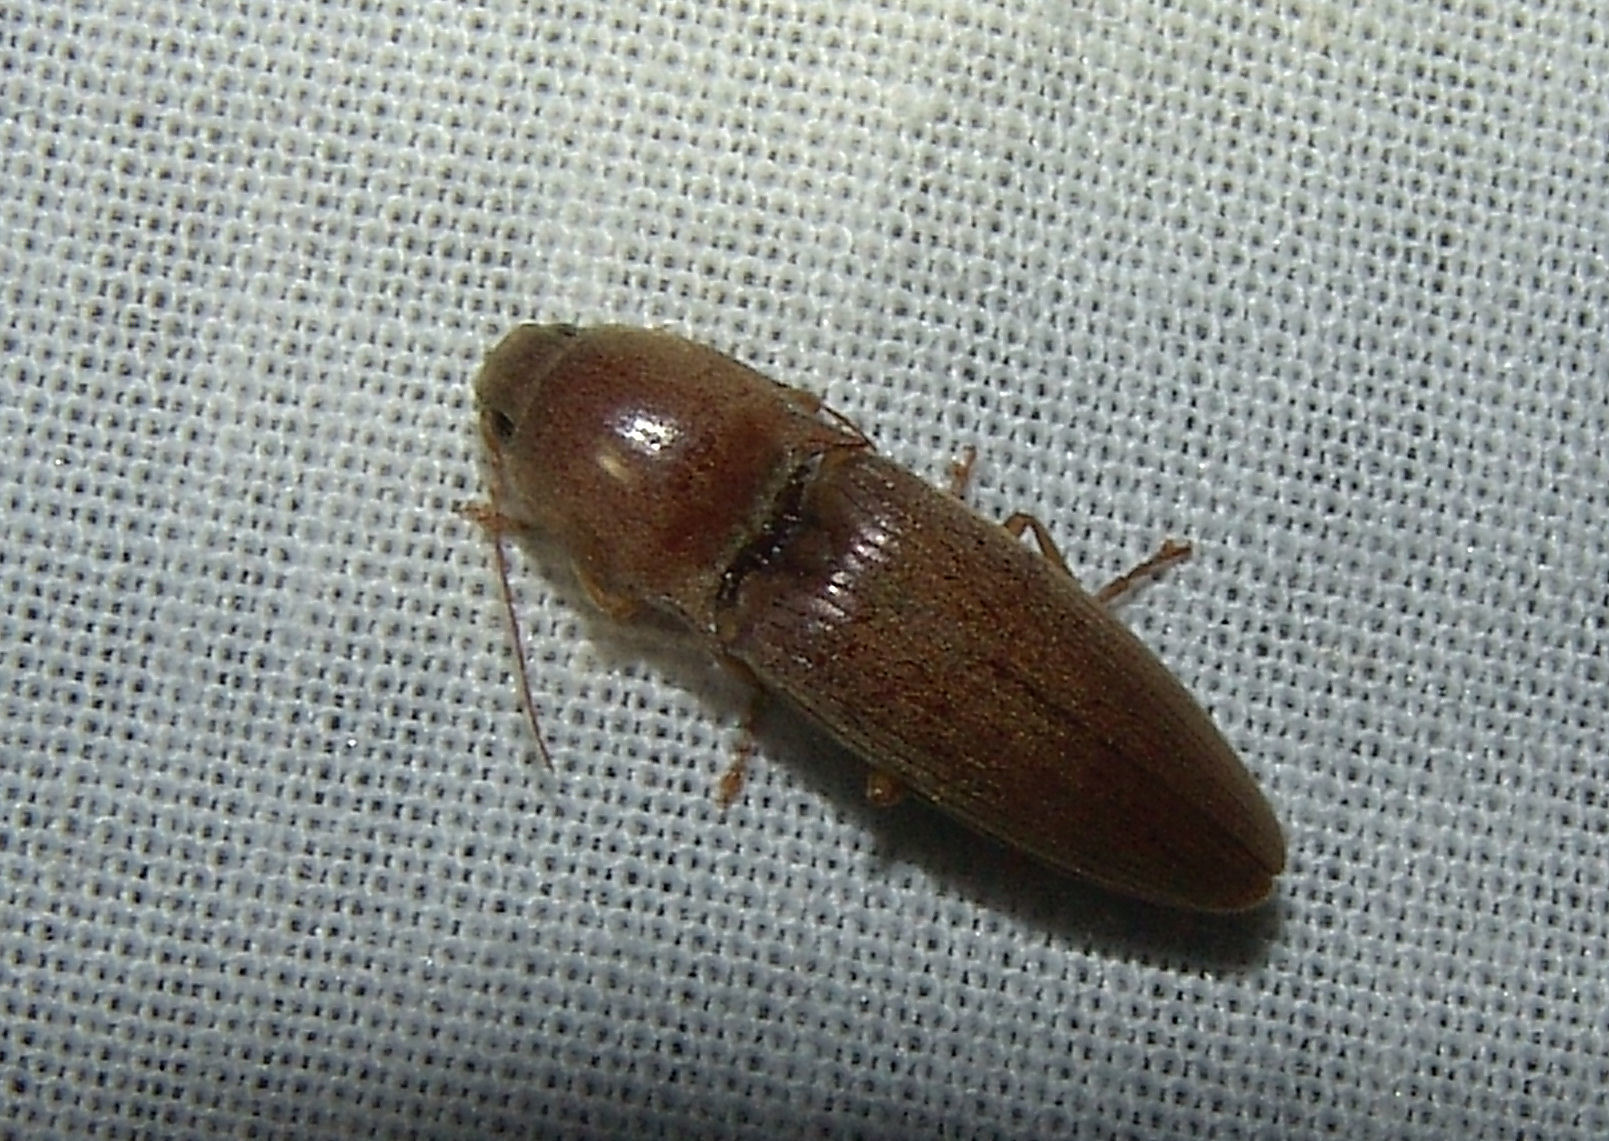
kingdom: Animalia
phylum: Arthropoda
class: Insecta
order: Coleoptera
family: Elateridae
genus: Monocrepidius
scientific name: Monocrepidius lividus
